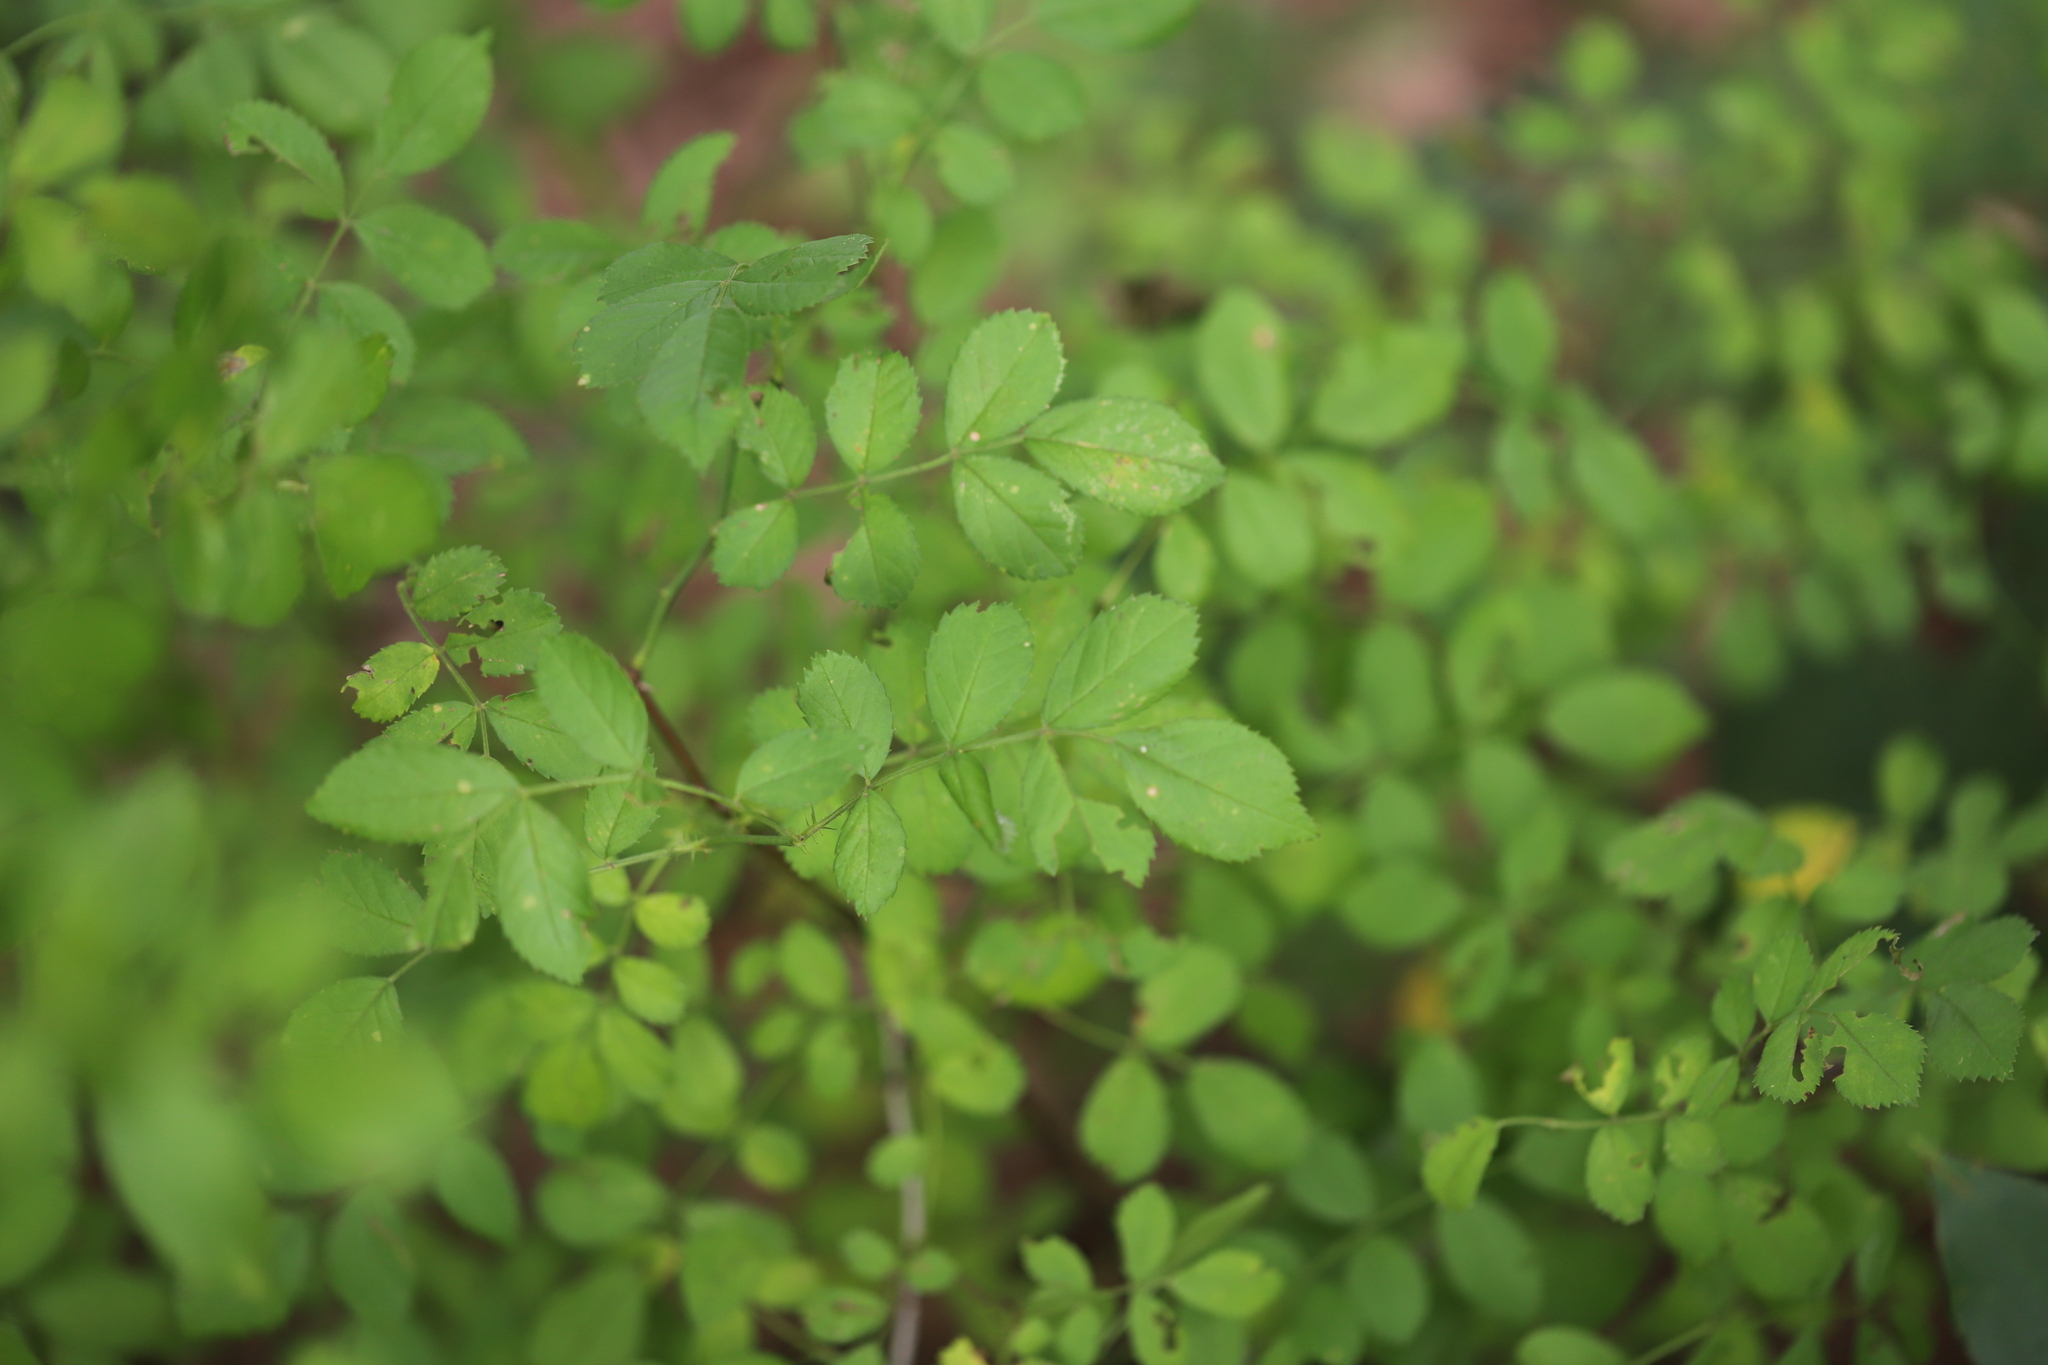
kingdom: Plantae
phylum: Tracheophyta
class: Magnoliopsida
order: Rosales
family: Rosaceae
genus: Rosa
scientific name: Rosa multiflora
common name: Multiflora rose
